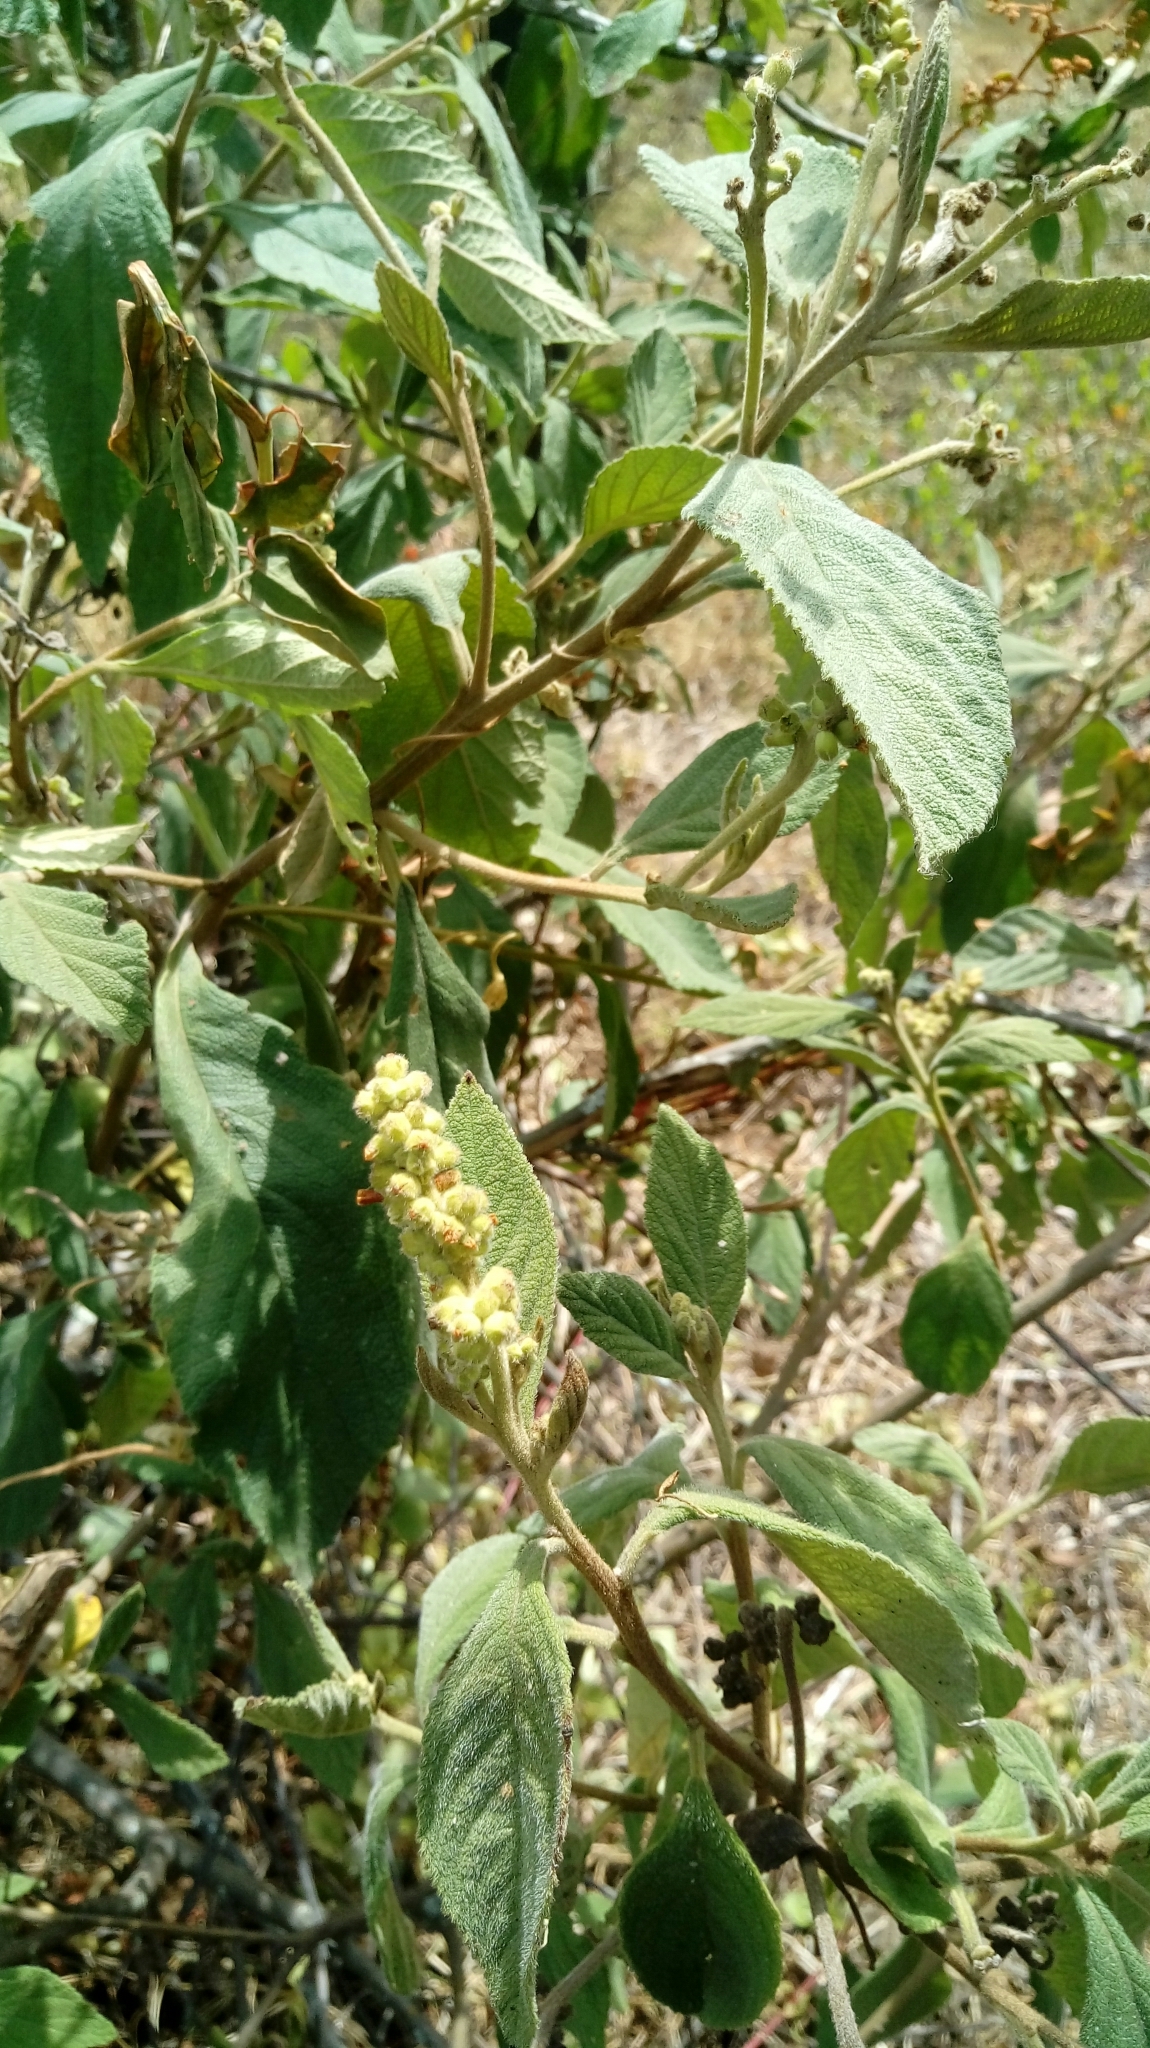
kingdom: Plantae
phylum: Tracheophyta
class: Magnoliopsida
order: Boraginales
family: Cordiaceae
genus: Varronia
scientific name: Varronia cylindrostachya
